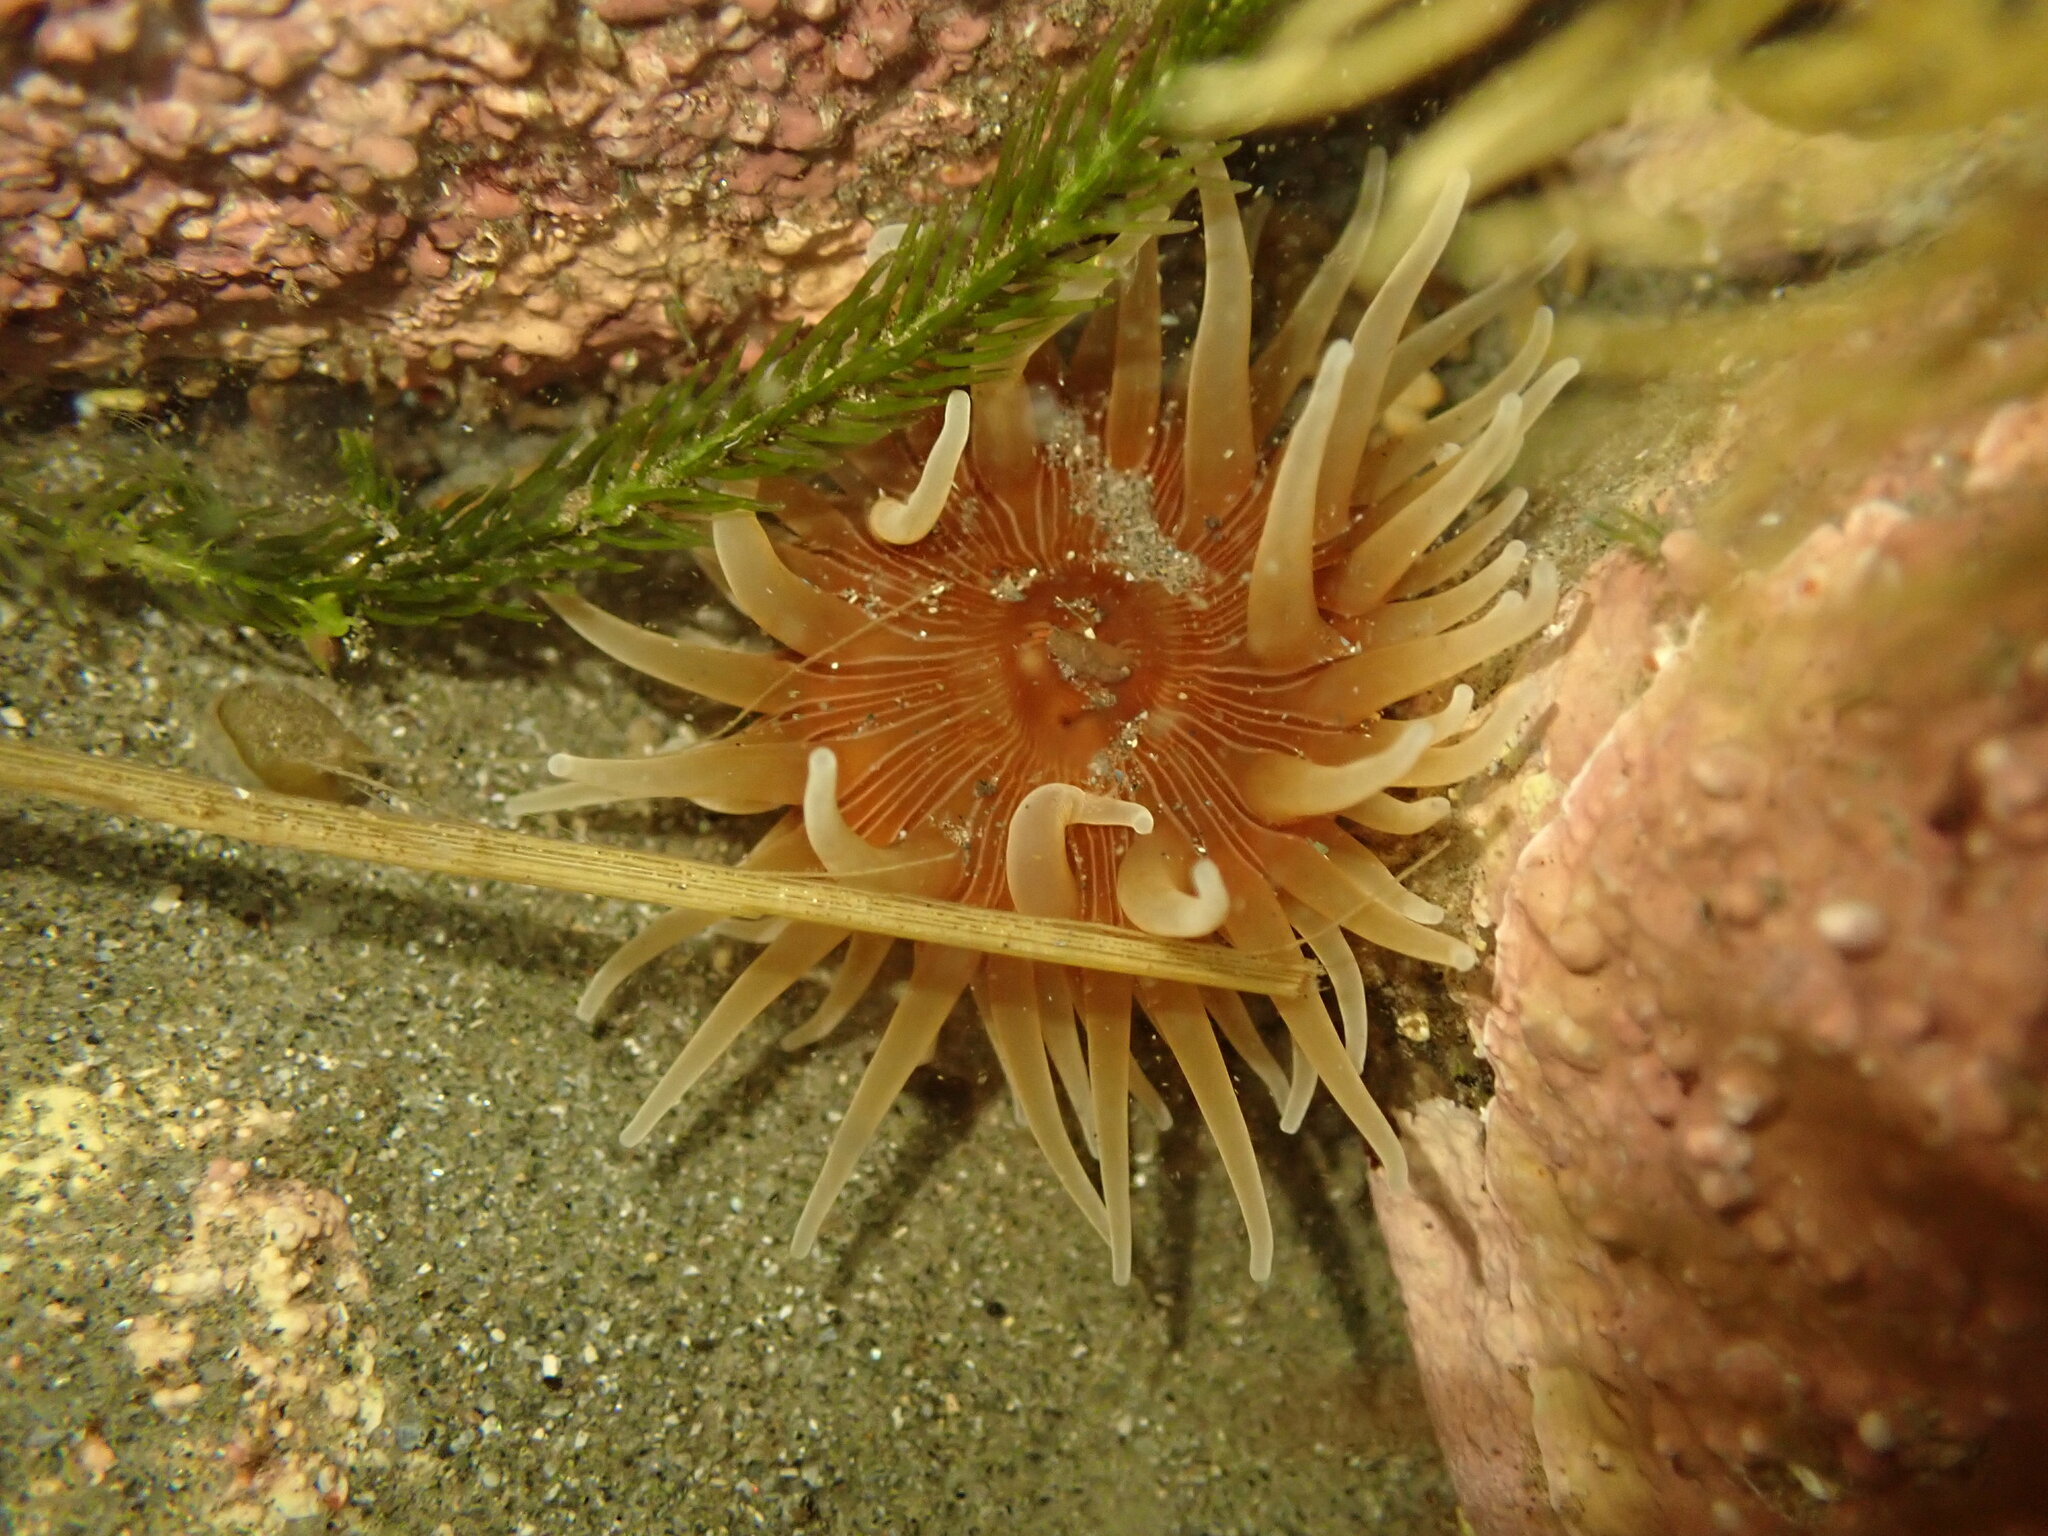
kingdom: Animalia
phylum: Cnidaria
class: Anthozoa
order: Actiniaria
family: Actiniidae
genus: Epiactis
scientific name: Epiactis thompsoni
